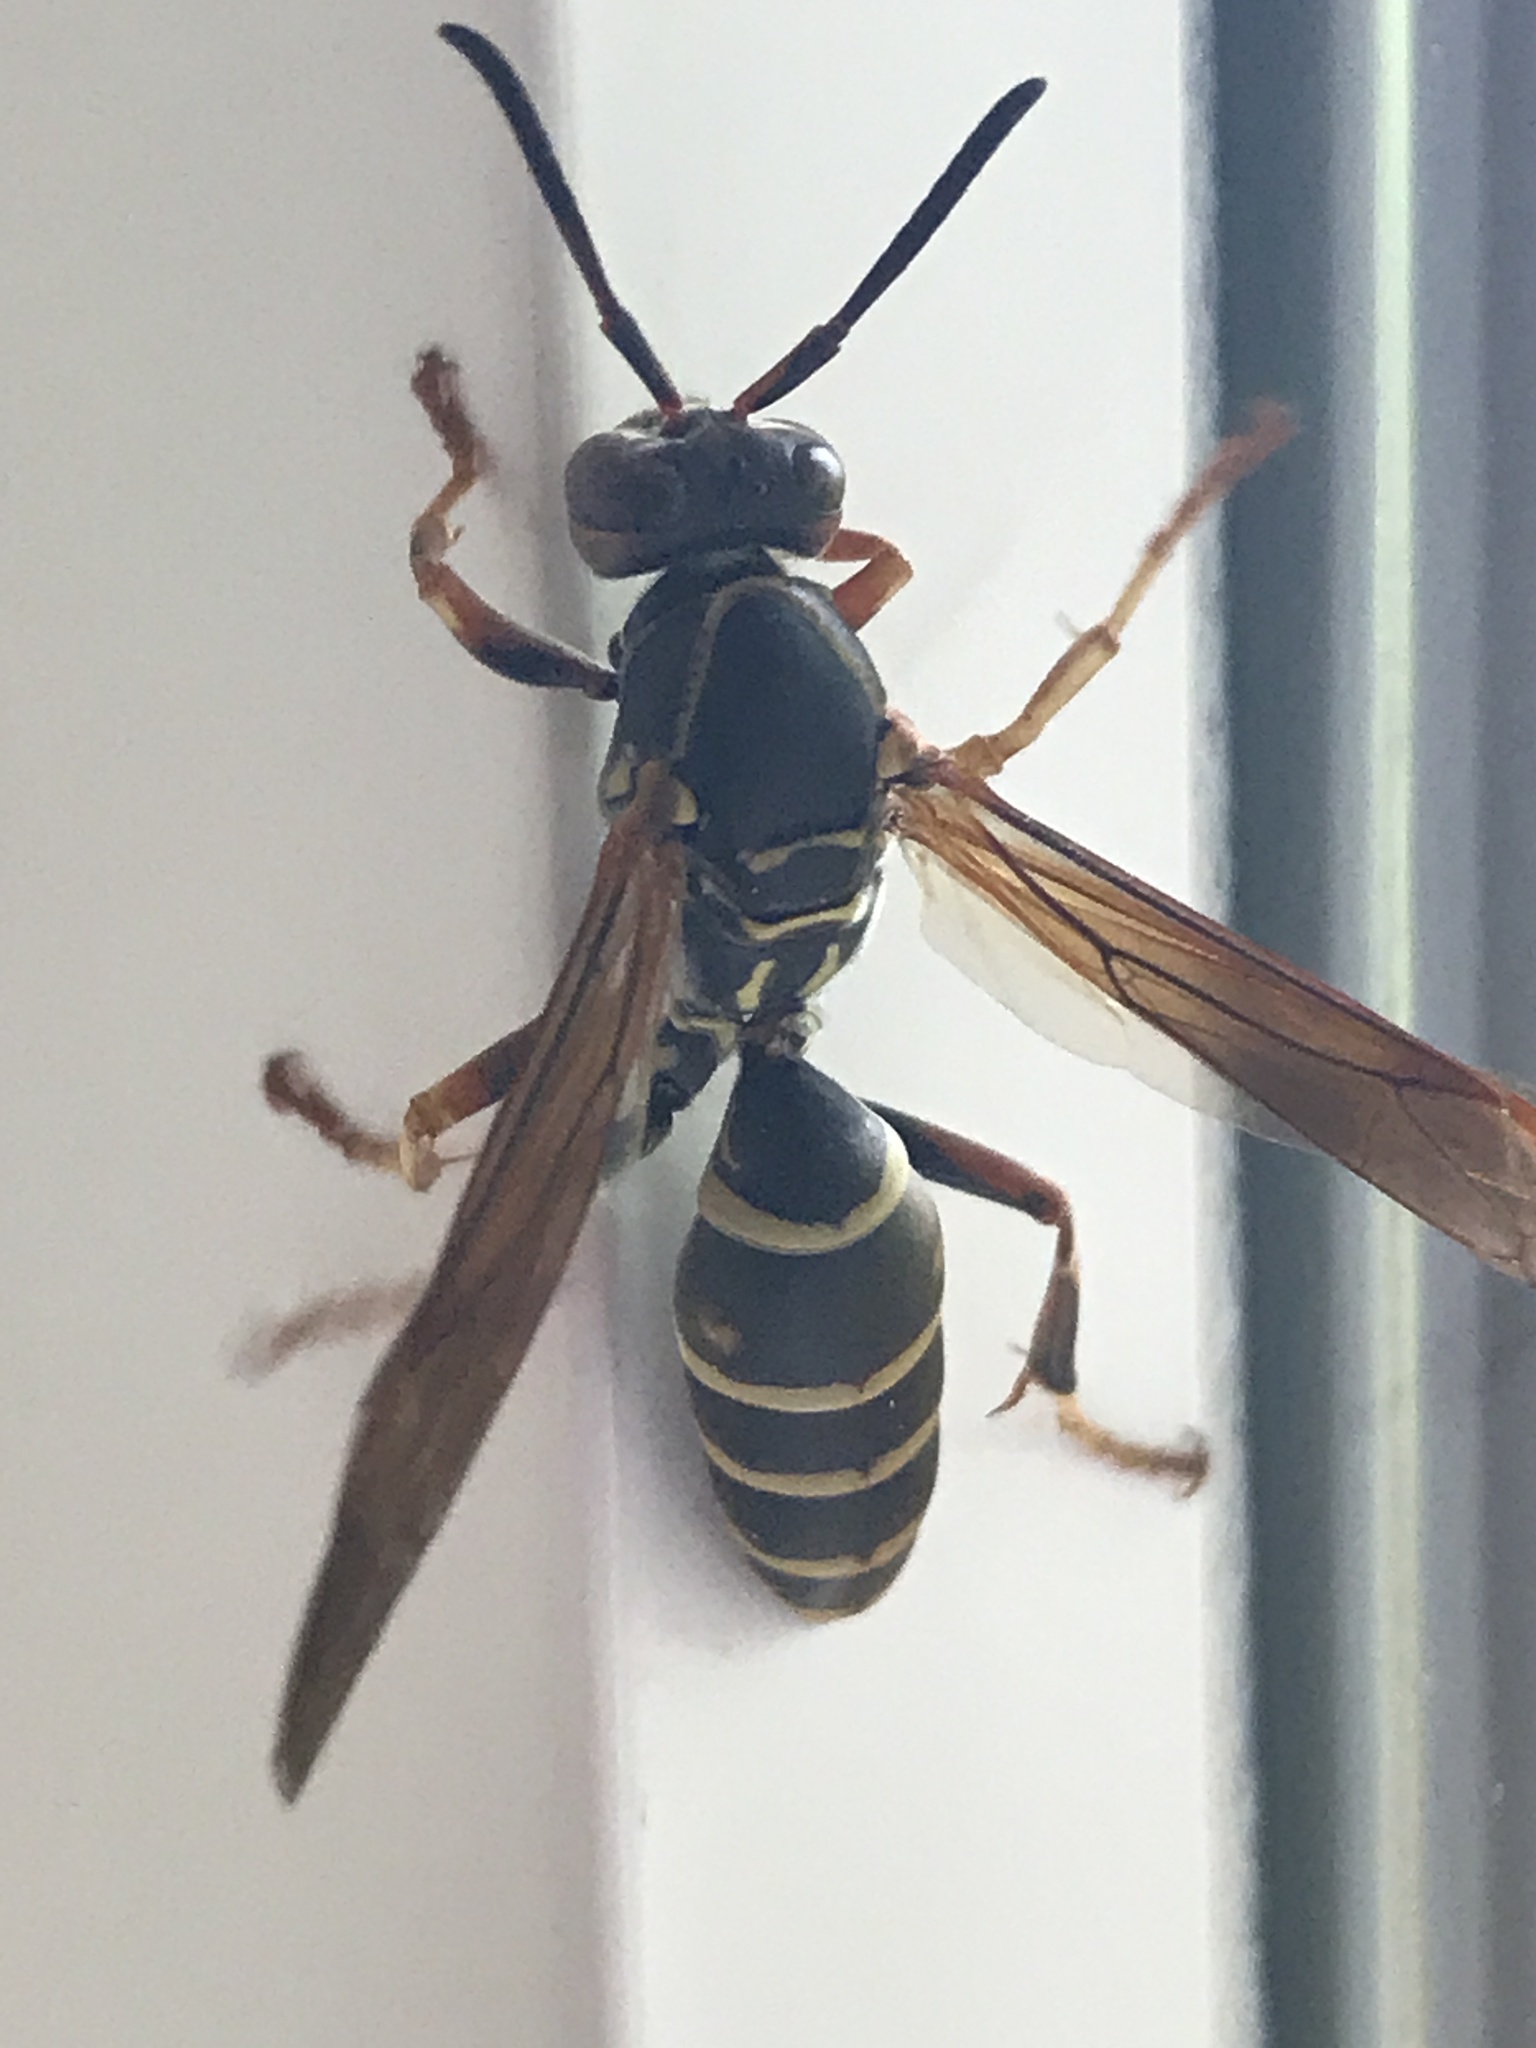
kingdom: Animalia
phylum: Arthropoda
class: Insecta
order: Hymenoptera
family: Eumenidae
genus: Polistes
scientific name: Polistes fuscatus
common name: Dark paper wasp
